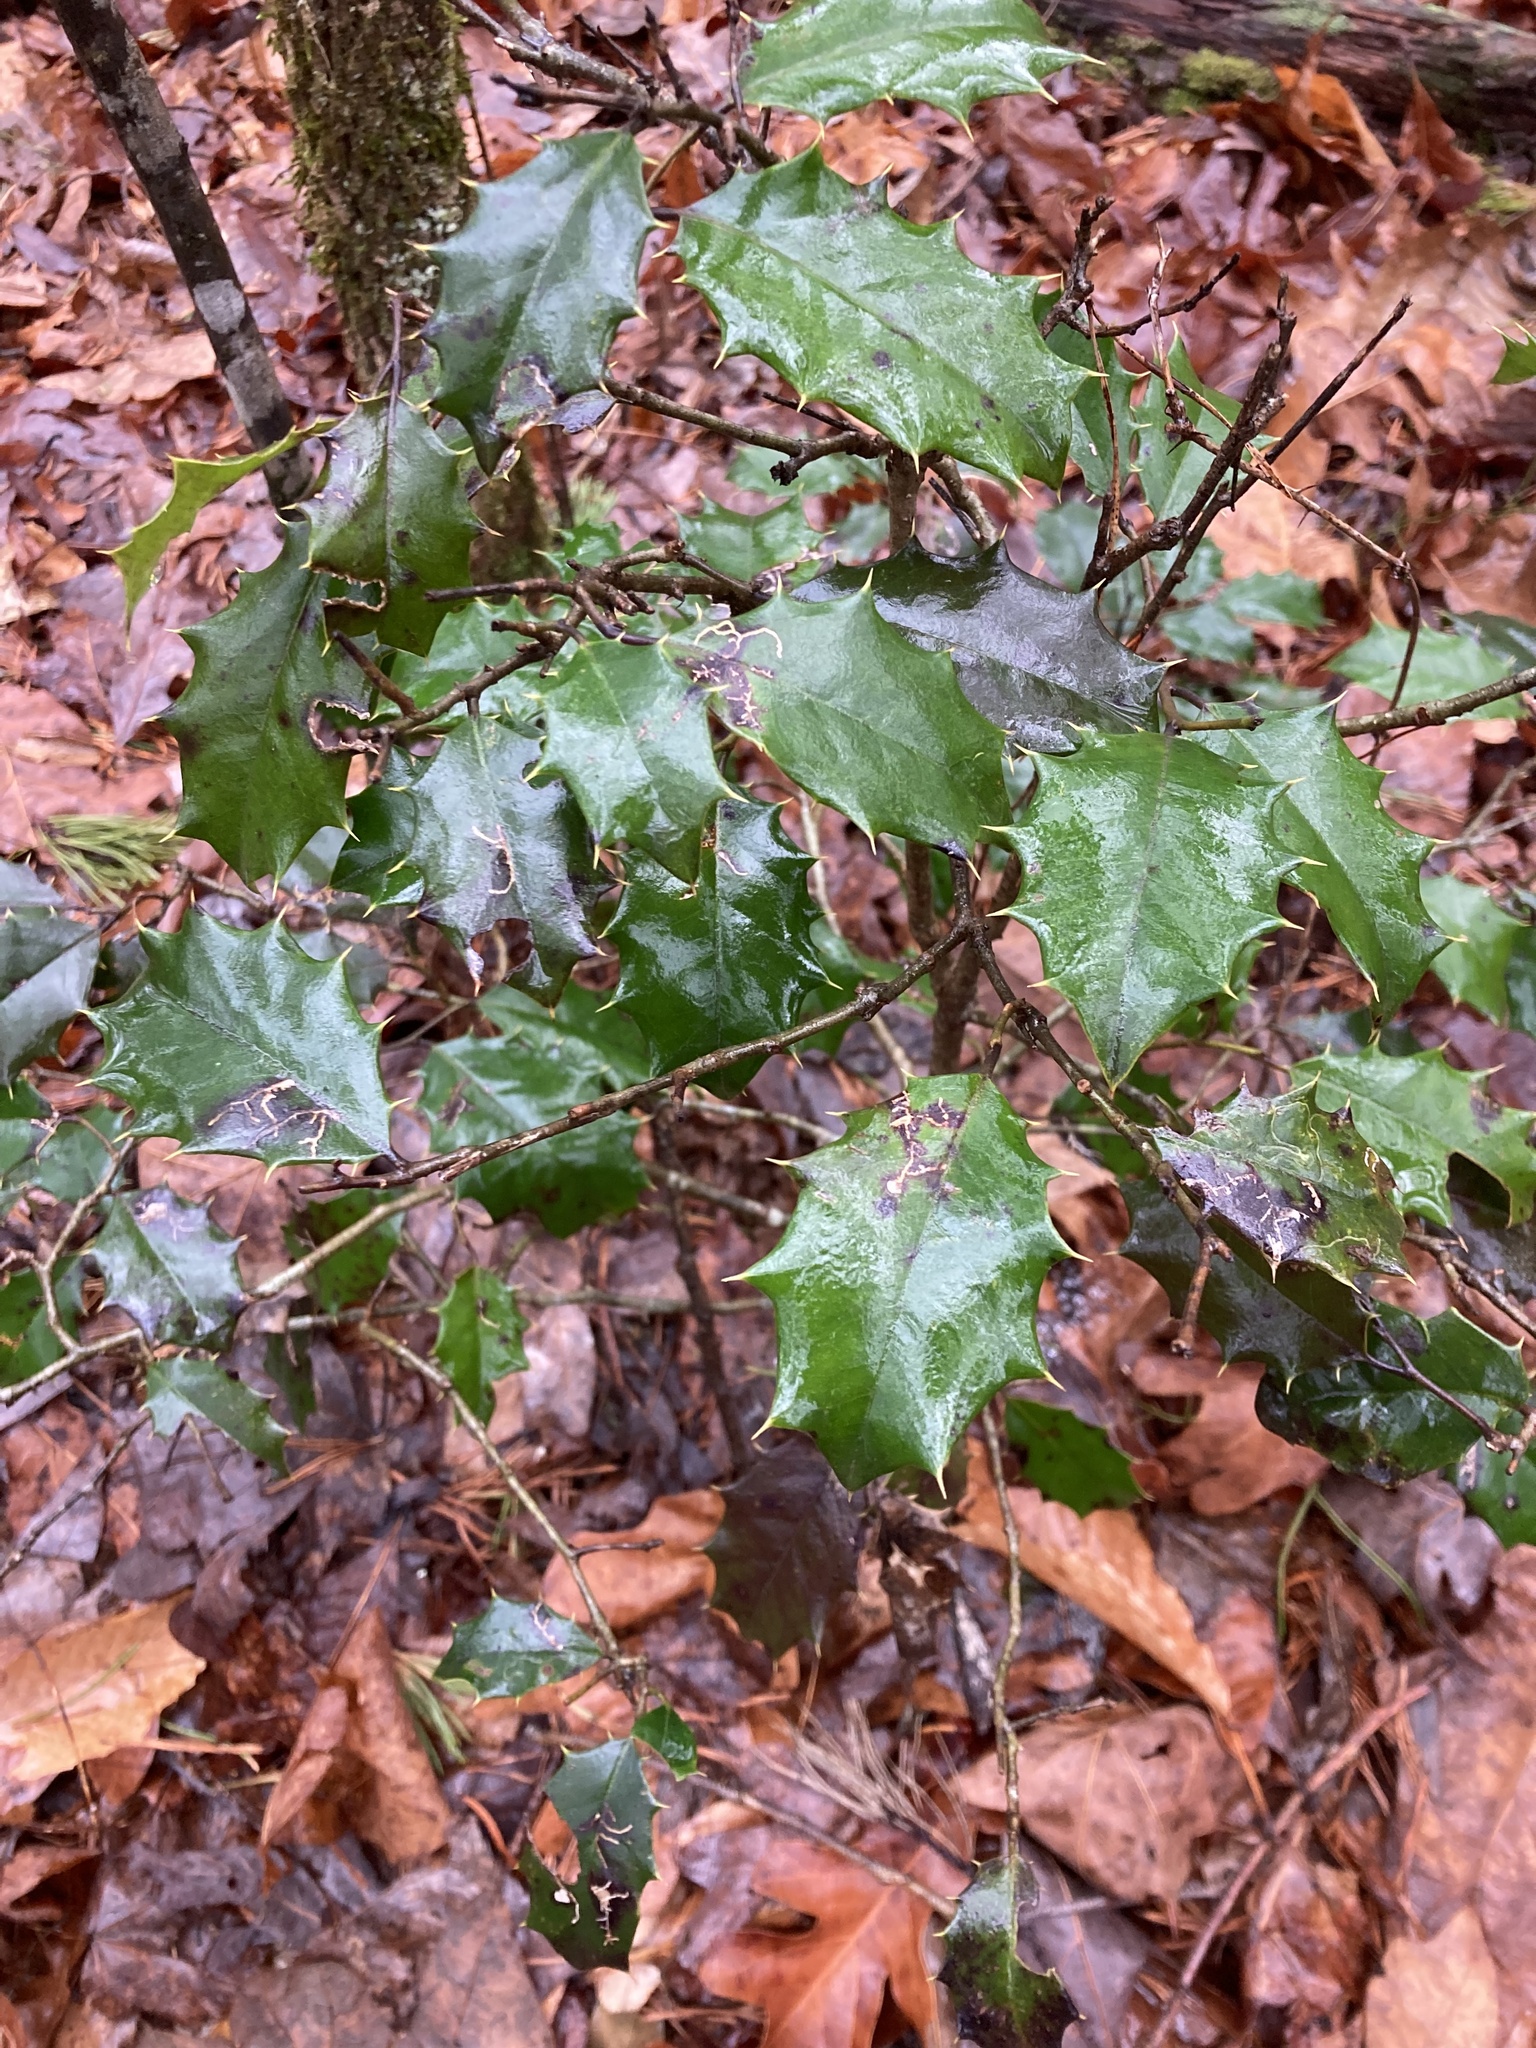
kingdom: Plantae
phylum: Tracheophyta
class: Magnoliopsida
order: Aquifoliales
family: Aquifoliaceae
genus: Ilex
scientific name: Ilex opaca
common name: American holly
